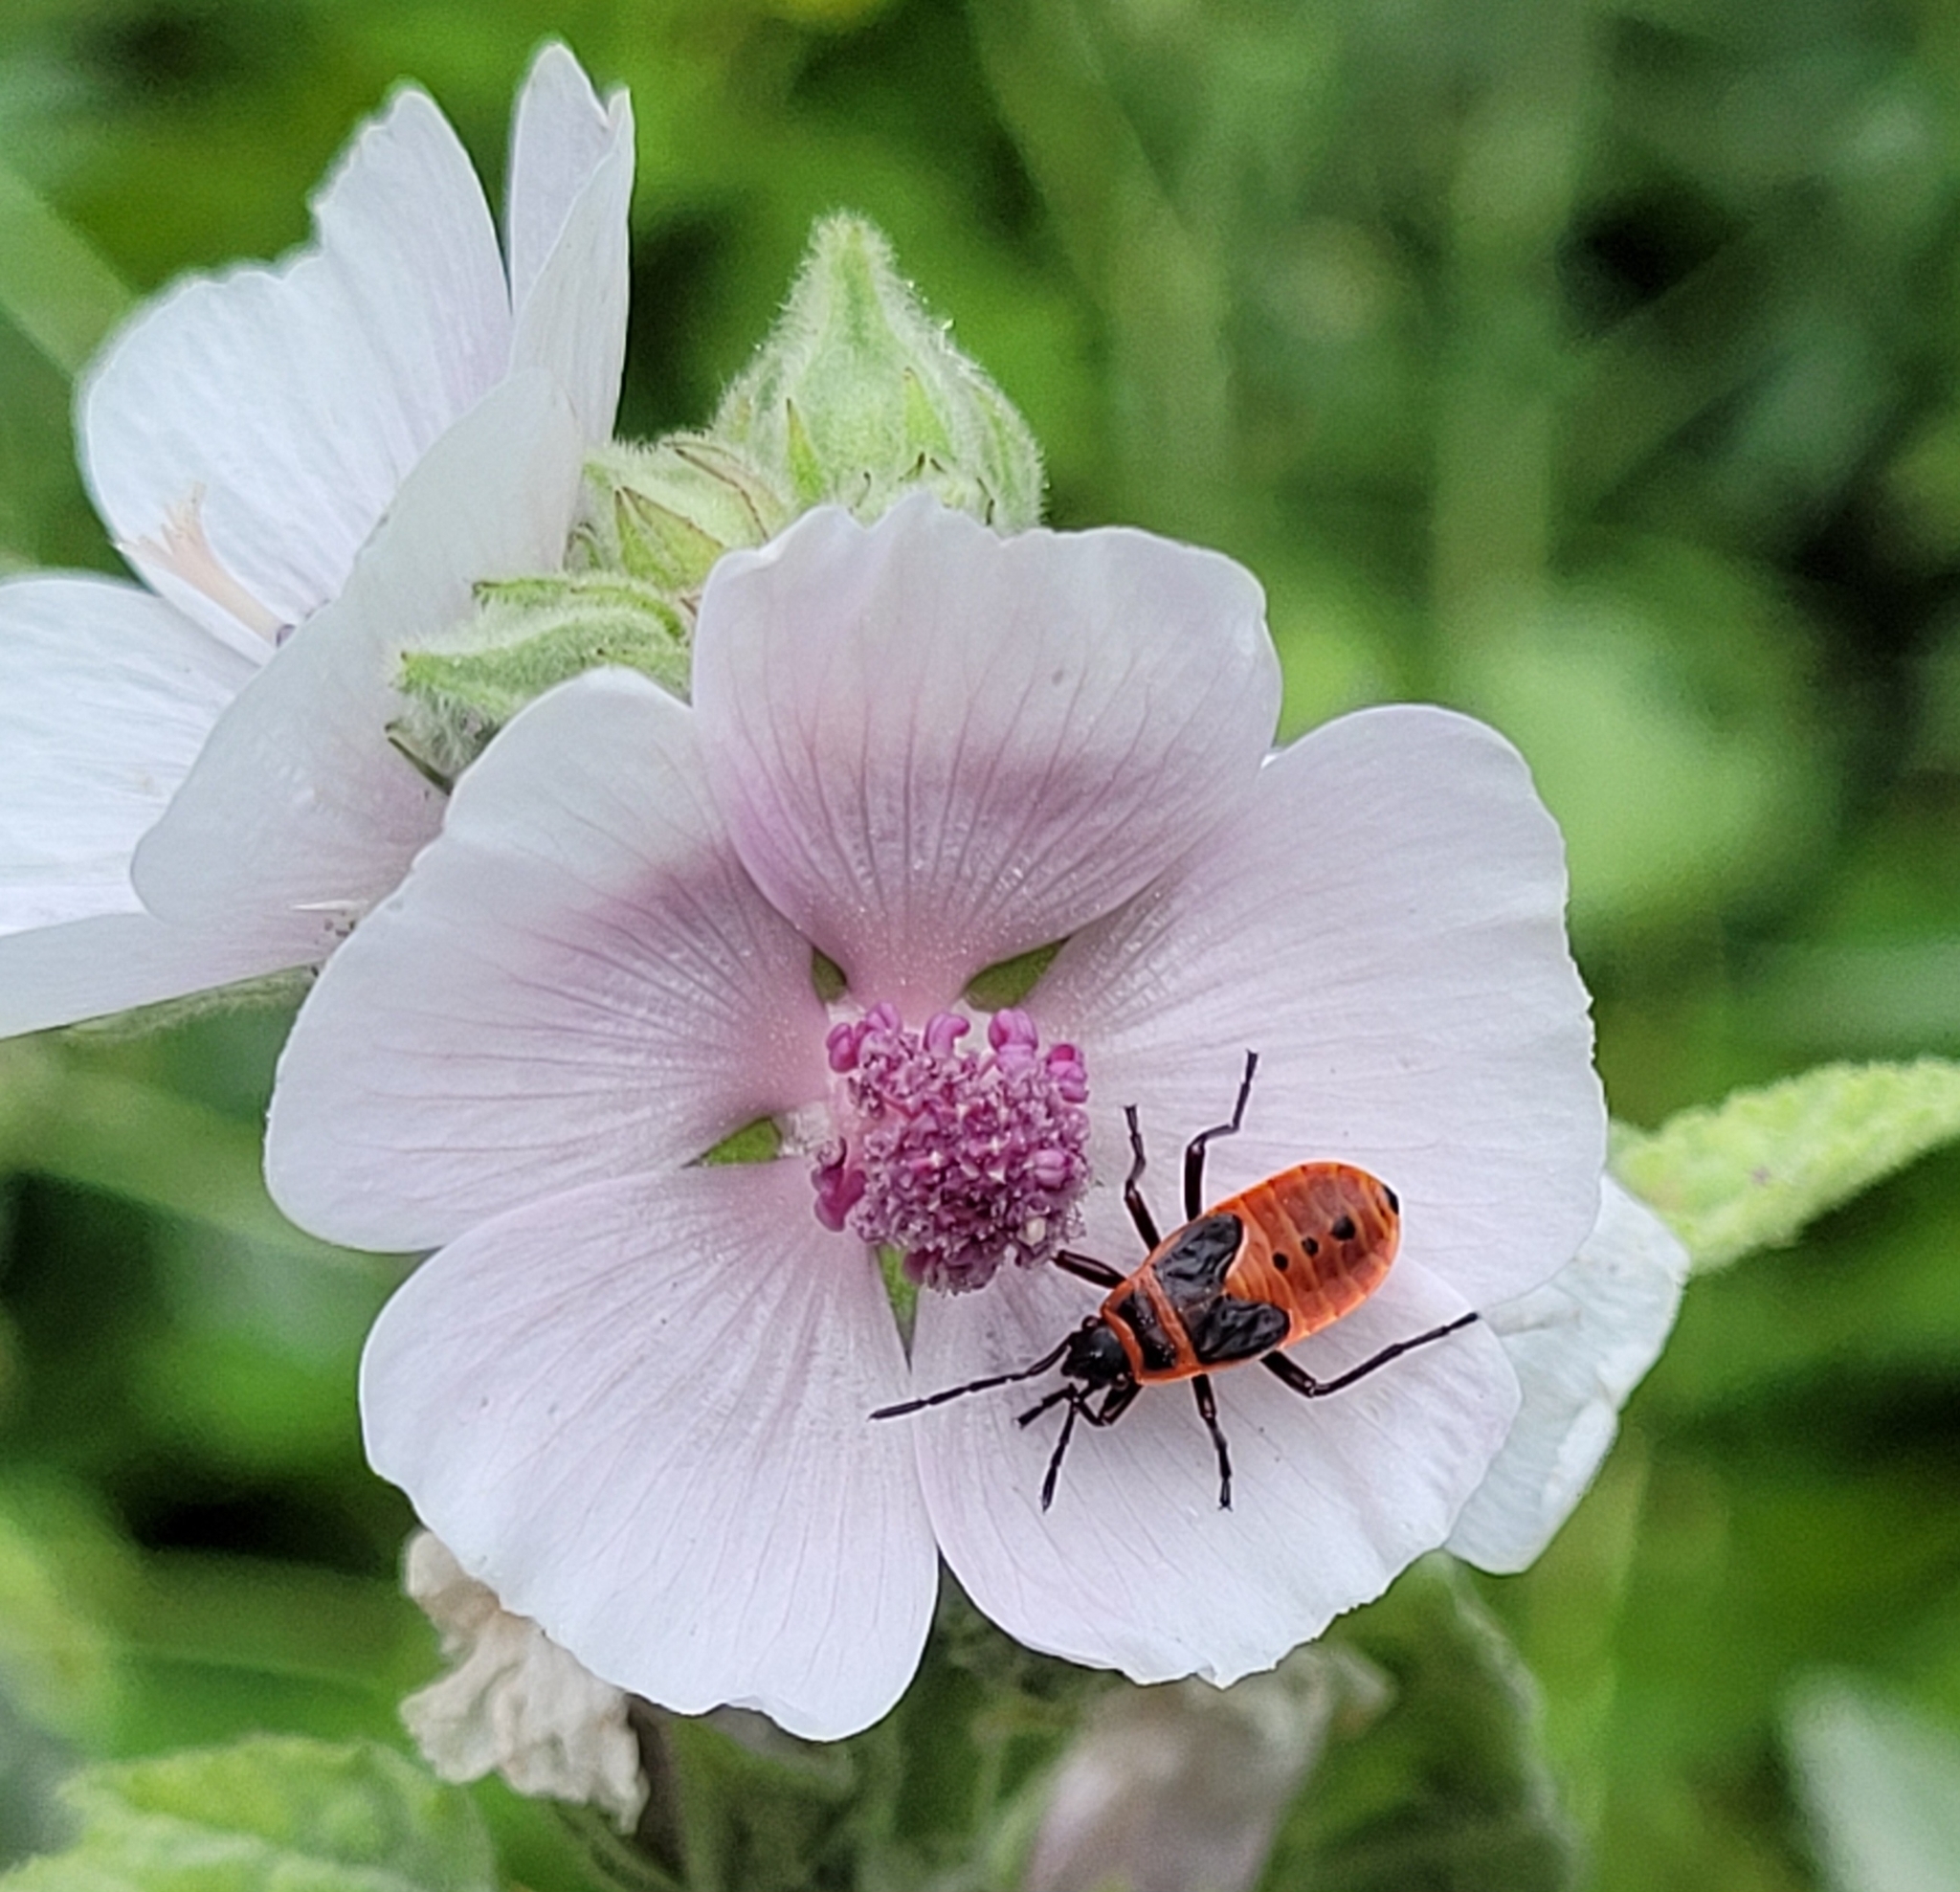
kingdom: Animalia
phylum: Arthropoda
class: Insecta
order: Hemiptera
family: Pyrrhocoridae
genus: Pyrrhocoris
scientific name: Pyrrhocoris apterus
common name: Firebug
